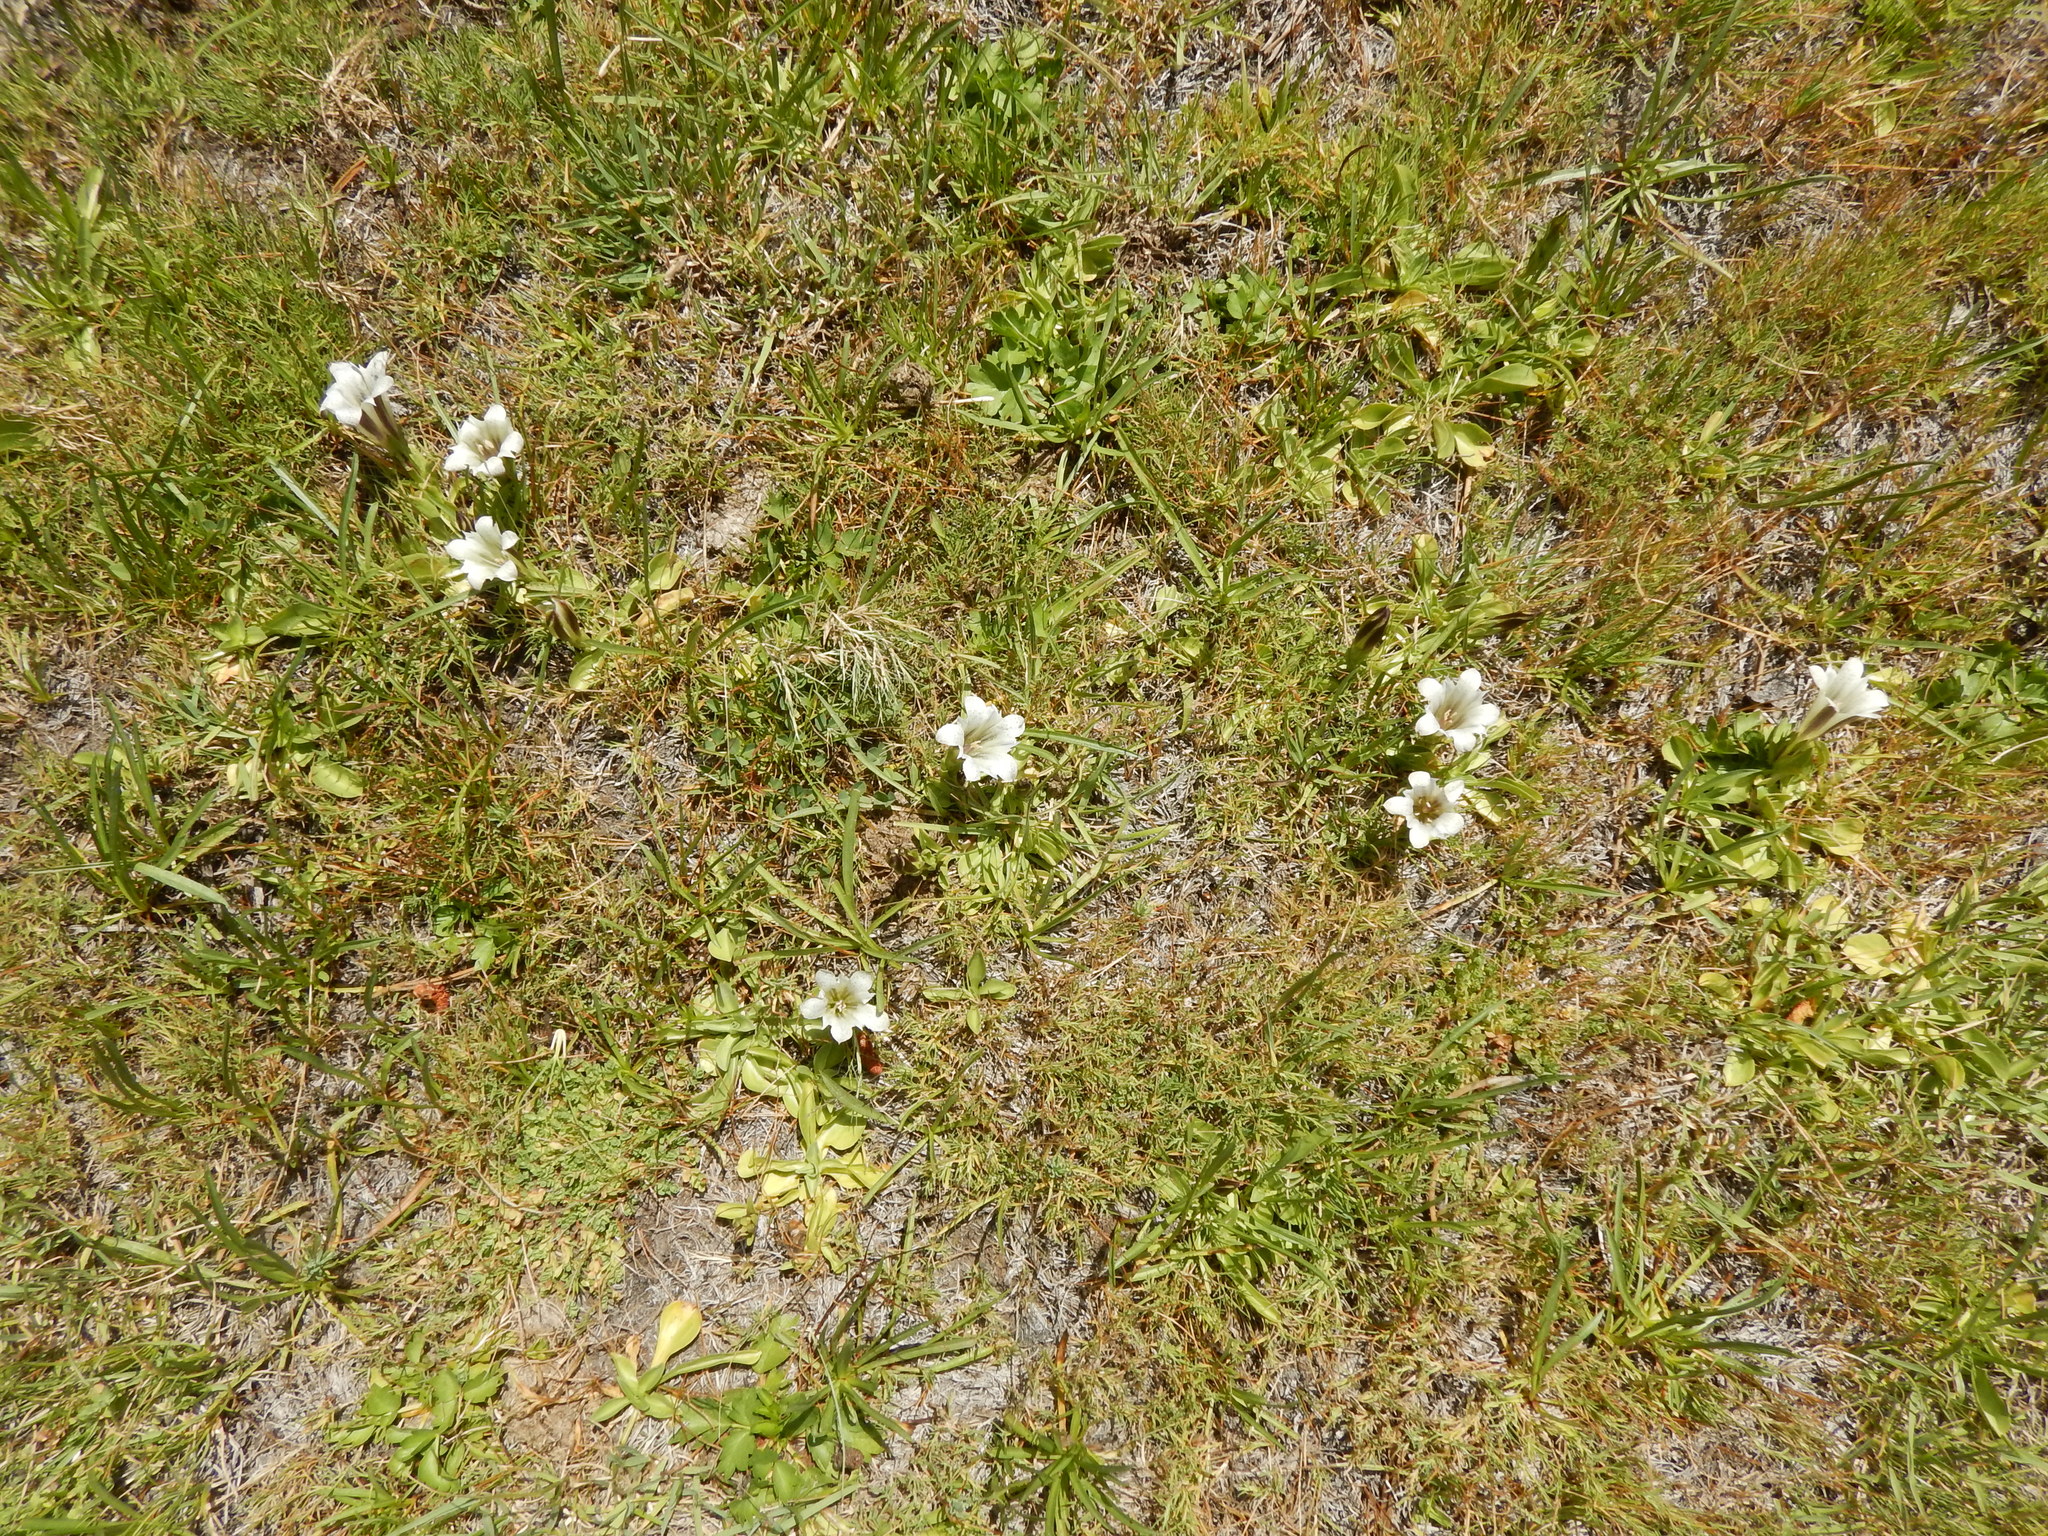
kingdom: Plantae
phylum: Tracheophyta
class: Magnoliopsida
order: Gentianales
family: Gentianaceae
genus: Gentiana
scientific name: Gentiana newberryi
